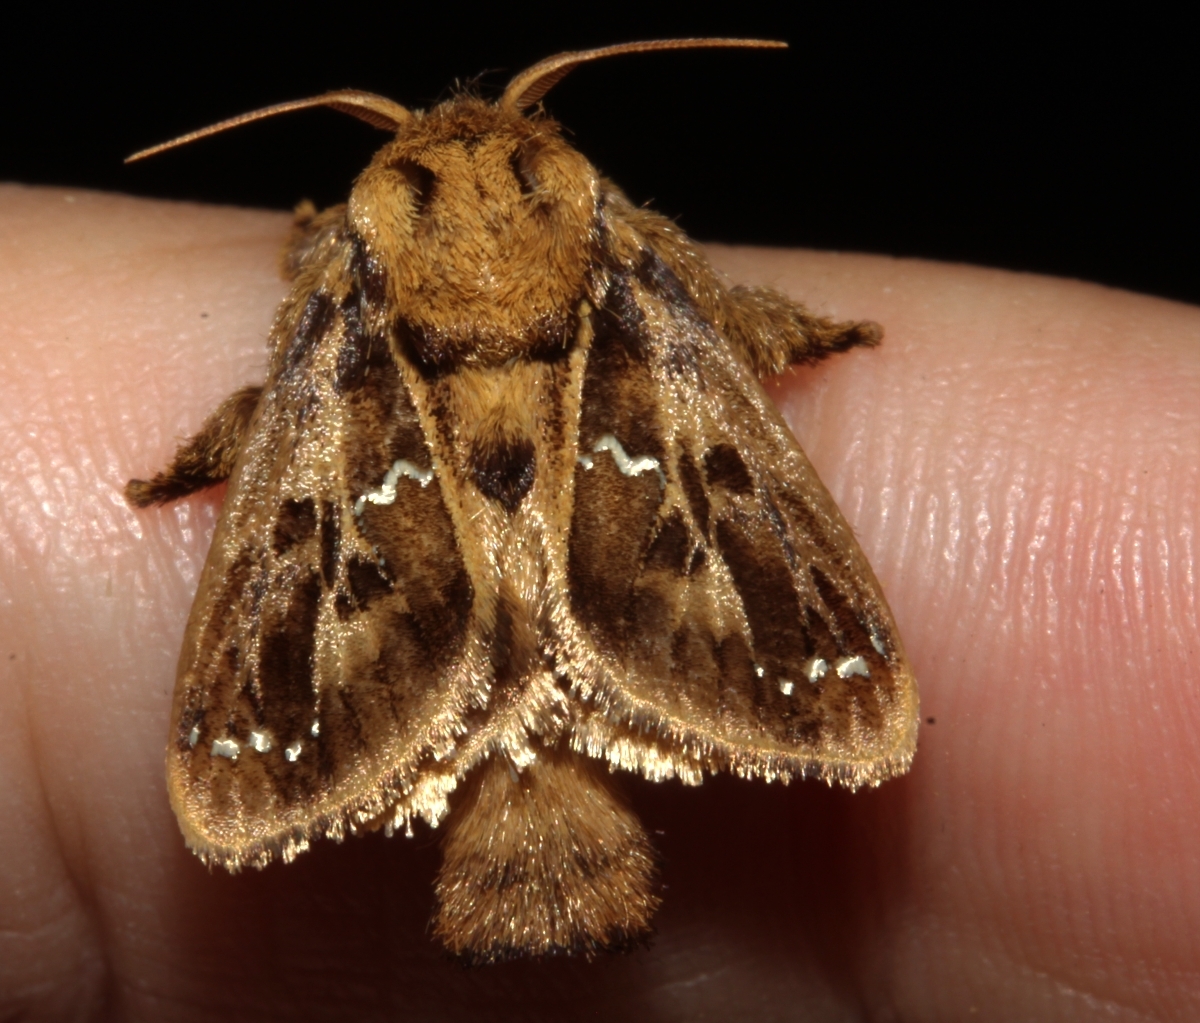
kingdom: Animalia
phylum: Arthropoda
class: Insecta
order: Lepidoptera
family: Limacodidae
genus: Euclea
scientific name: Euclea buscki
